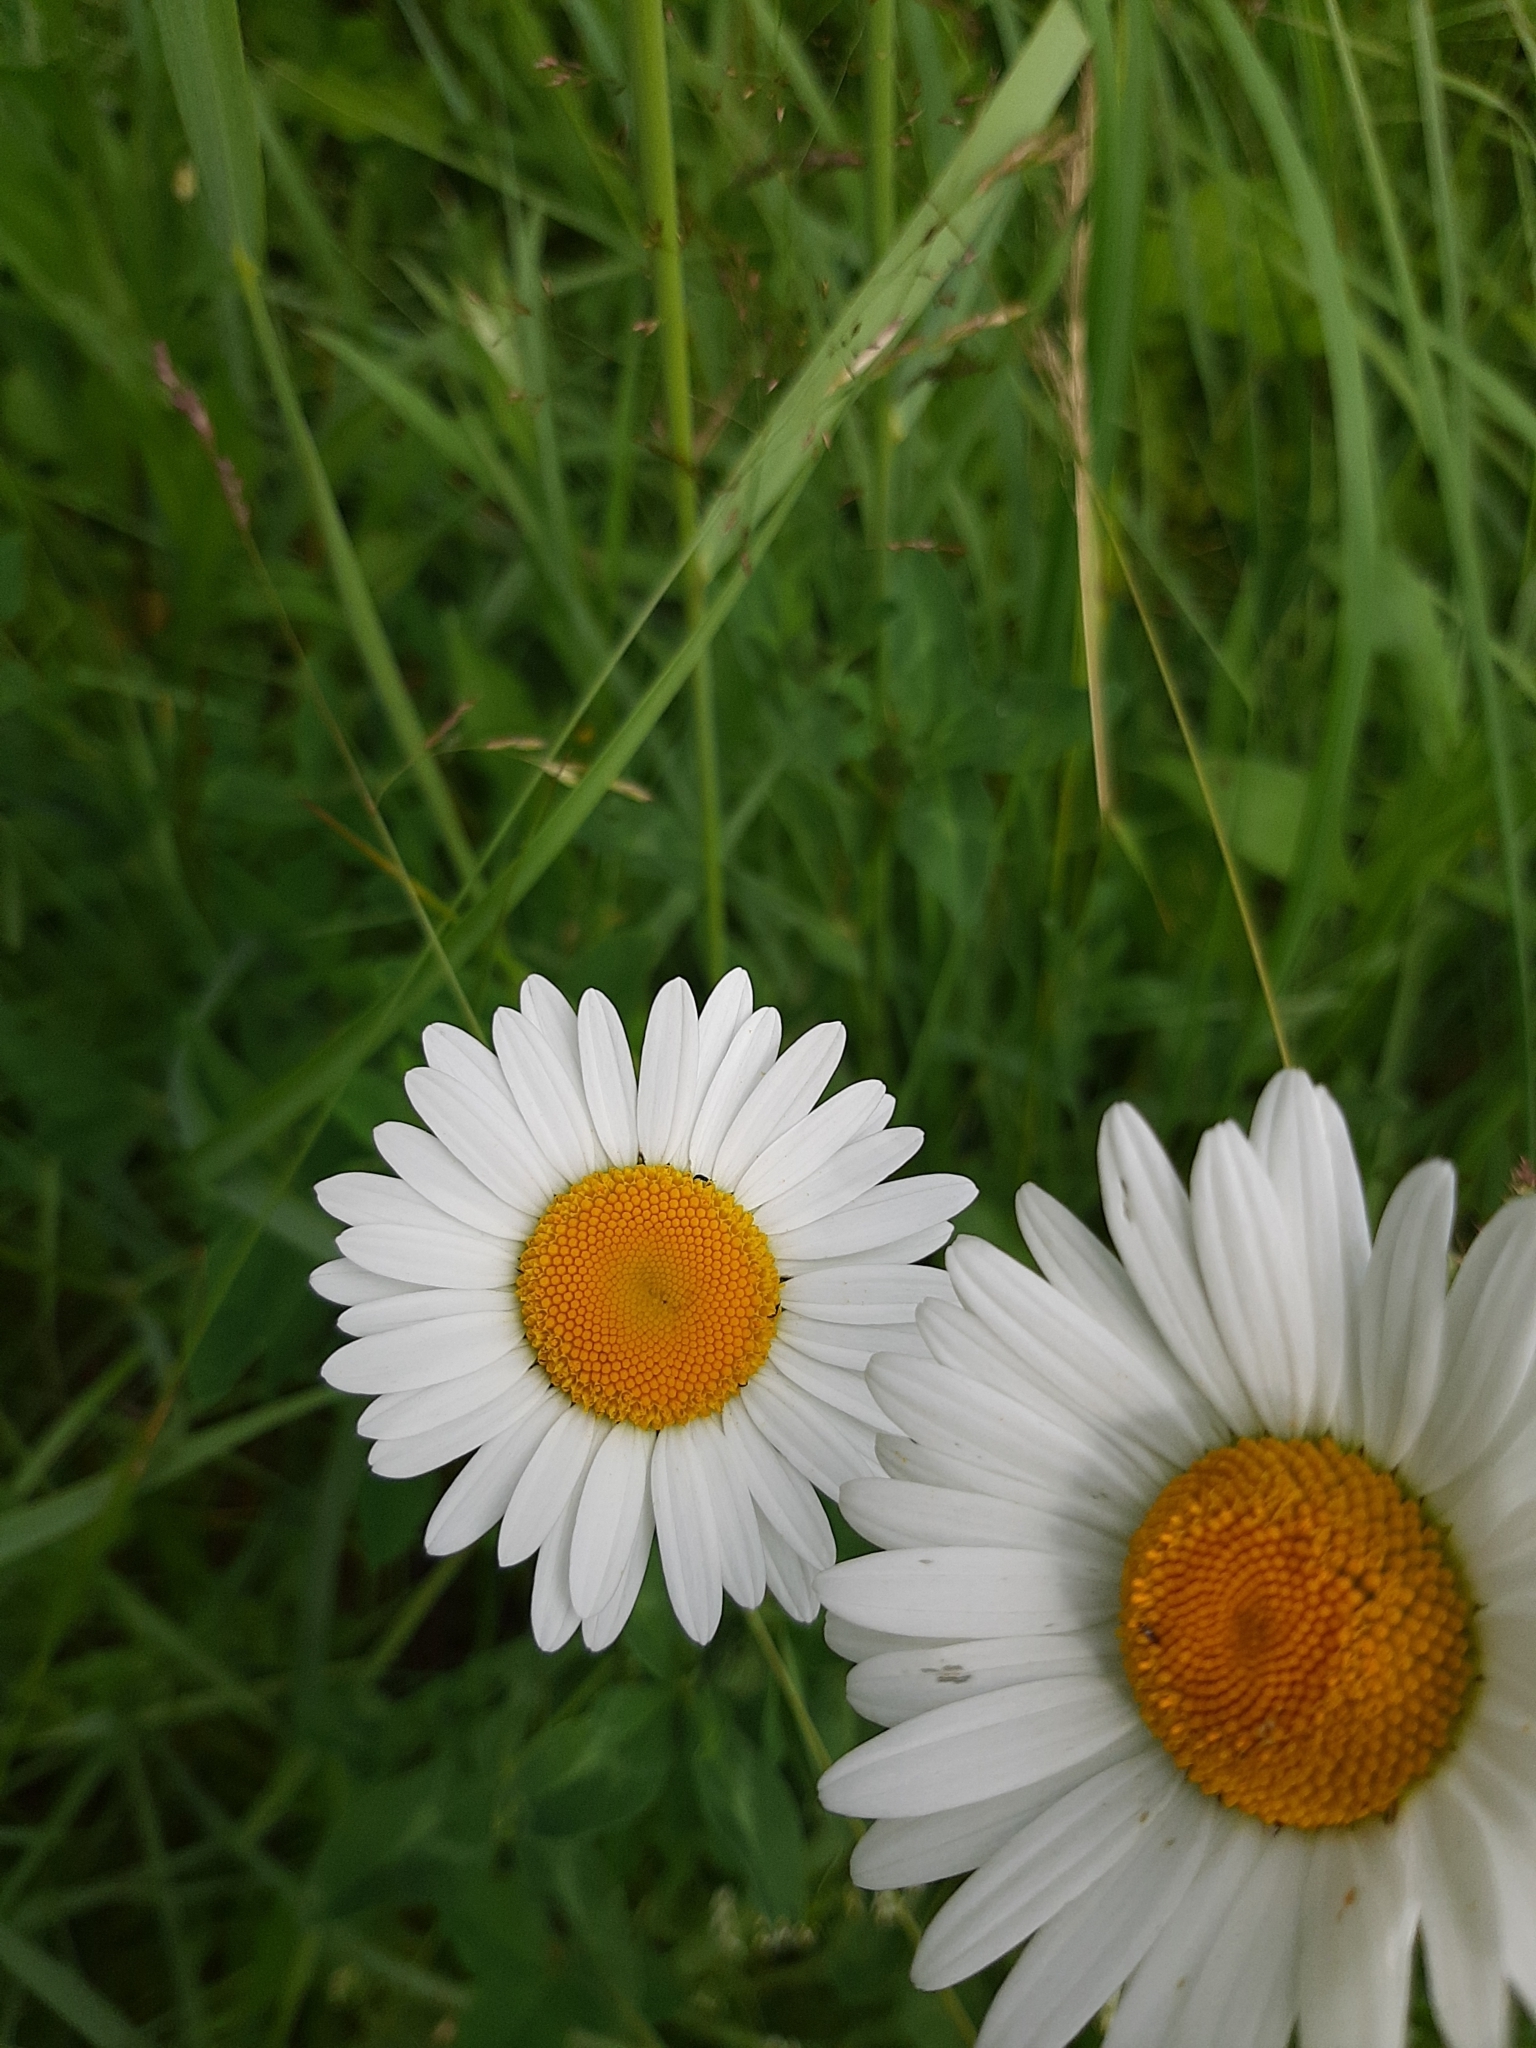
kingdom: Plantae
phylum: Tracheophyta
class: Magnoliopsida
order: Asterales
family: Asteraceae
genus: Leucanthemum
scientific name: Leucanthemum vulgare
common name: Oxeye daisy
